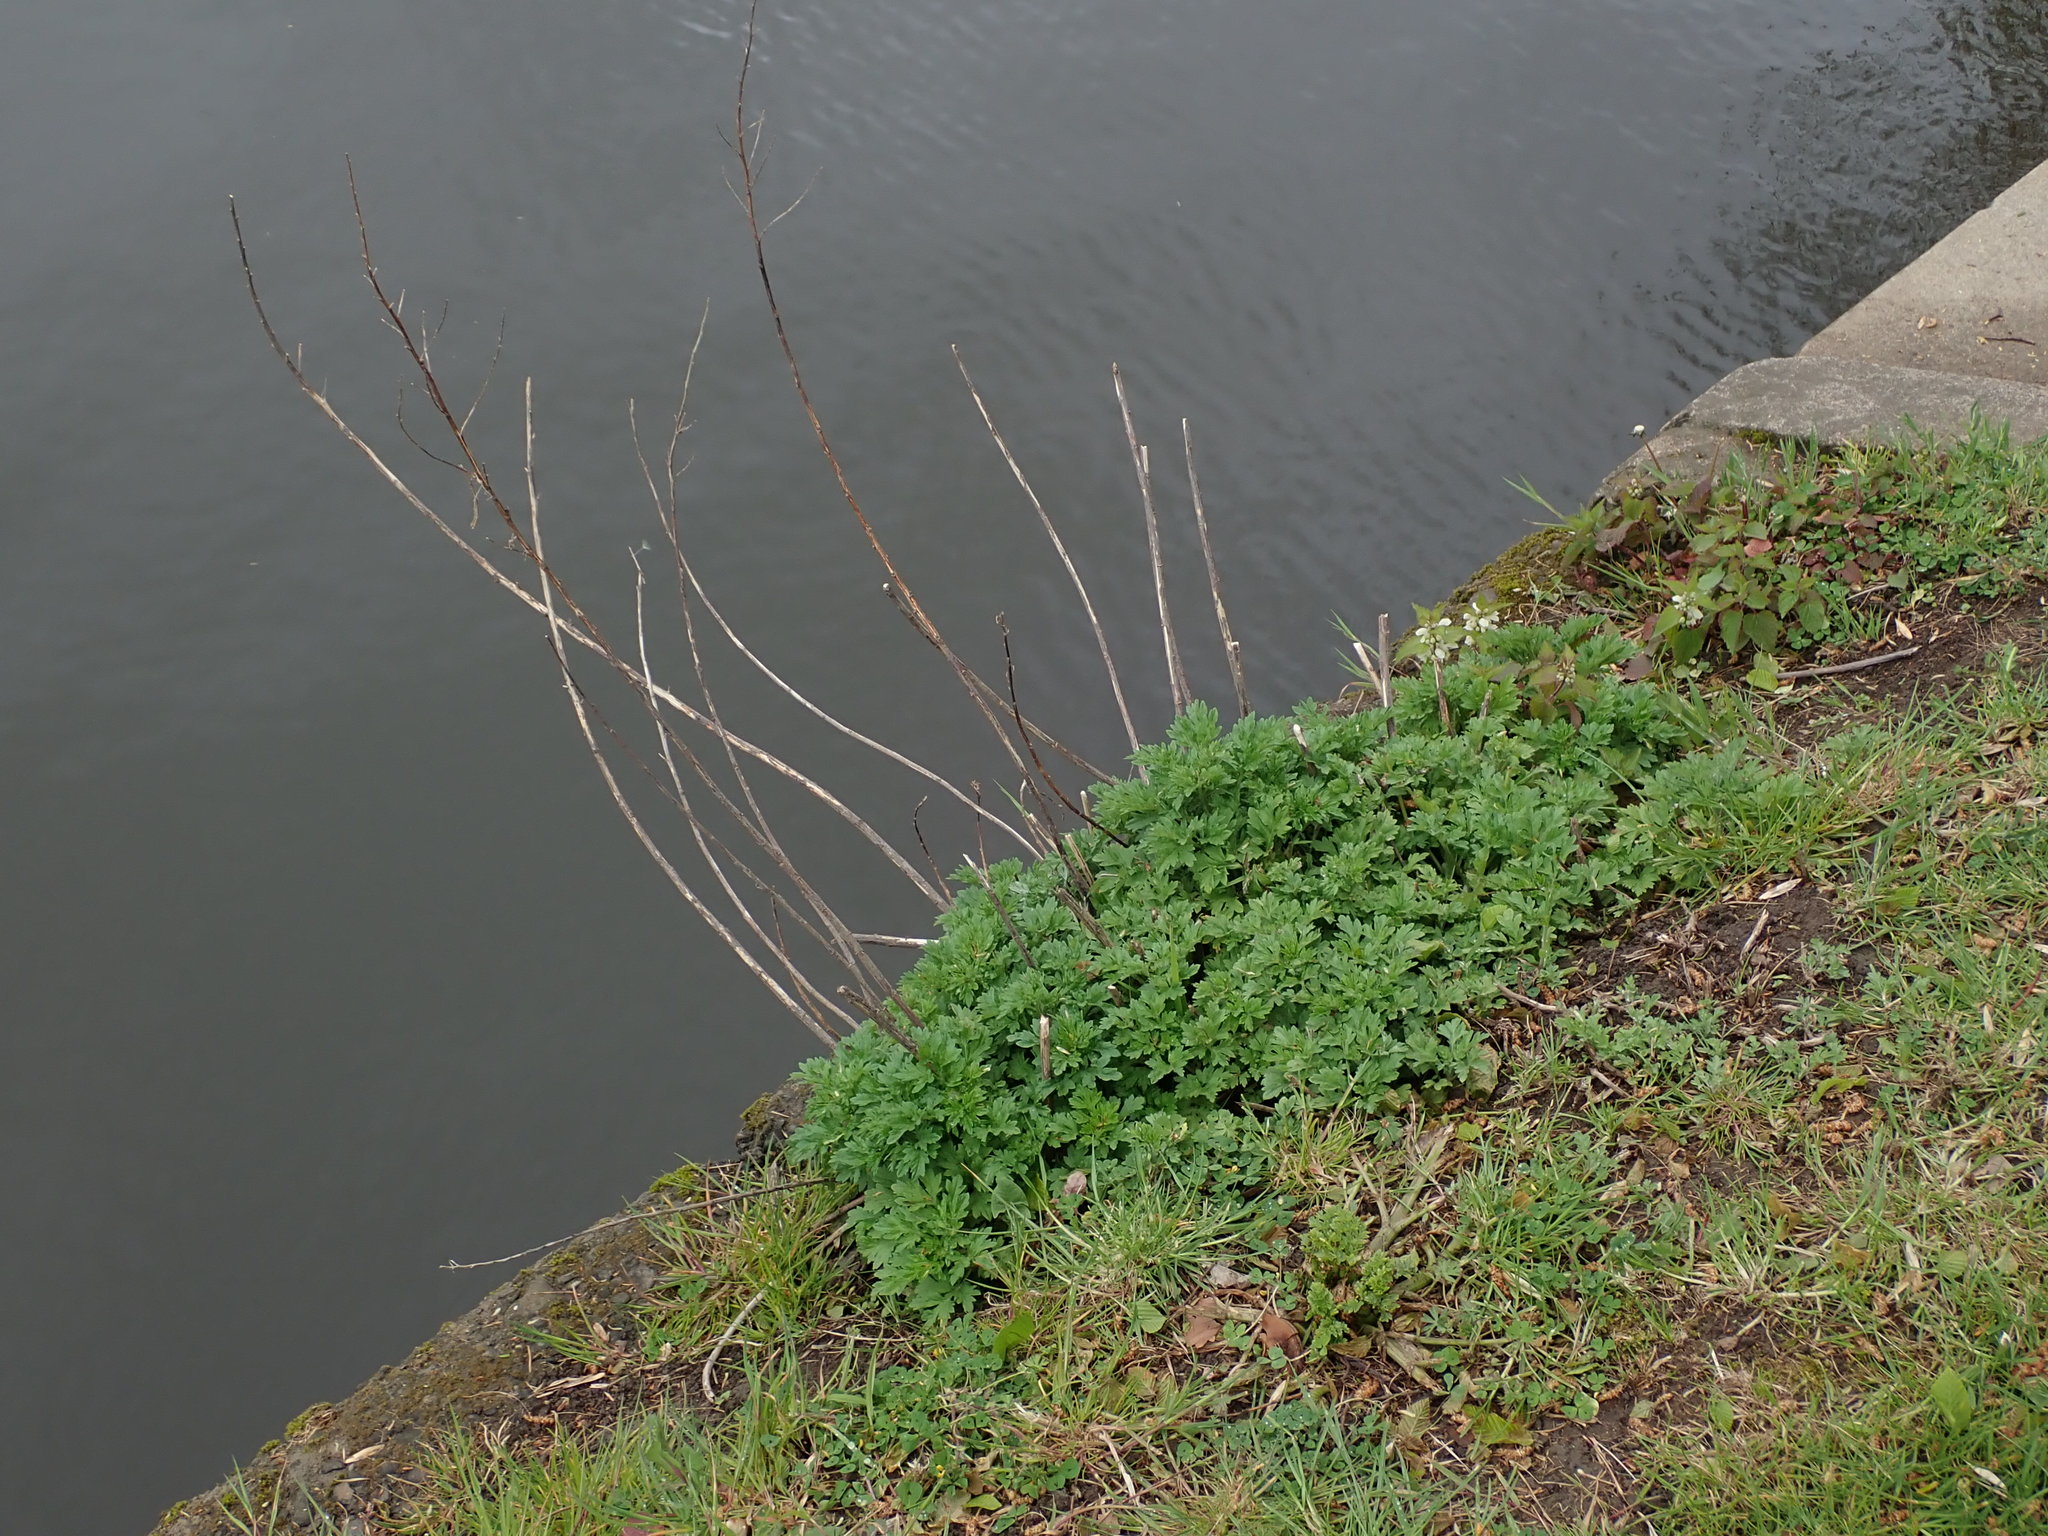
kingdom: Plantae
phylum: Tracheophyta
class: Magnoliopsida
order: Asterales
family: Asteraceae
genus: Artemisia
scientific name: Artemisia vulgaris
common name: Mugwort
